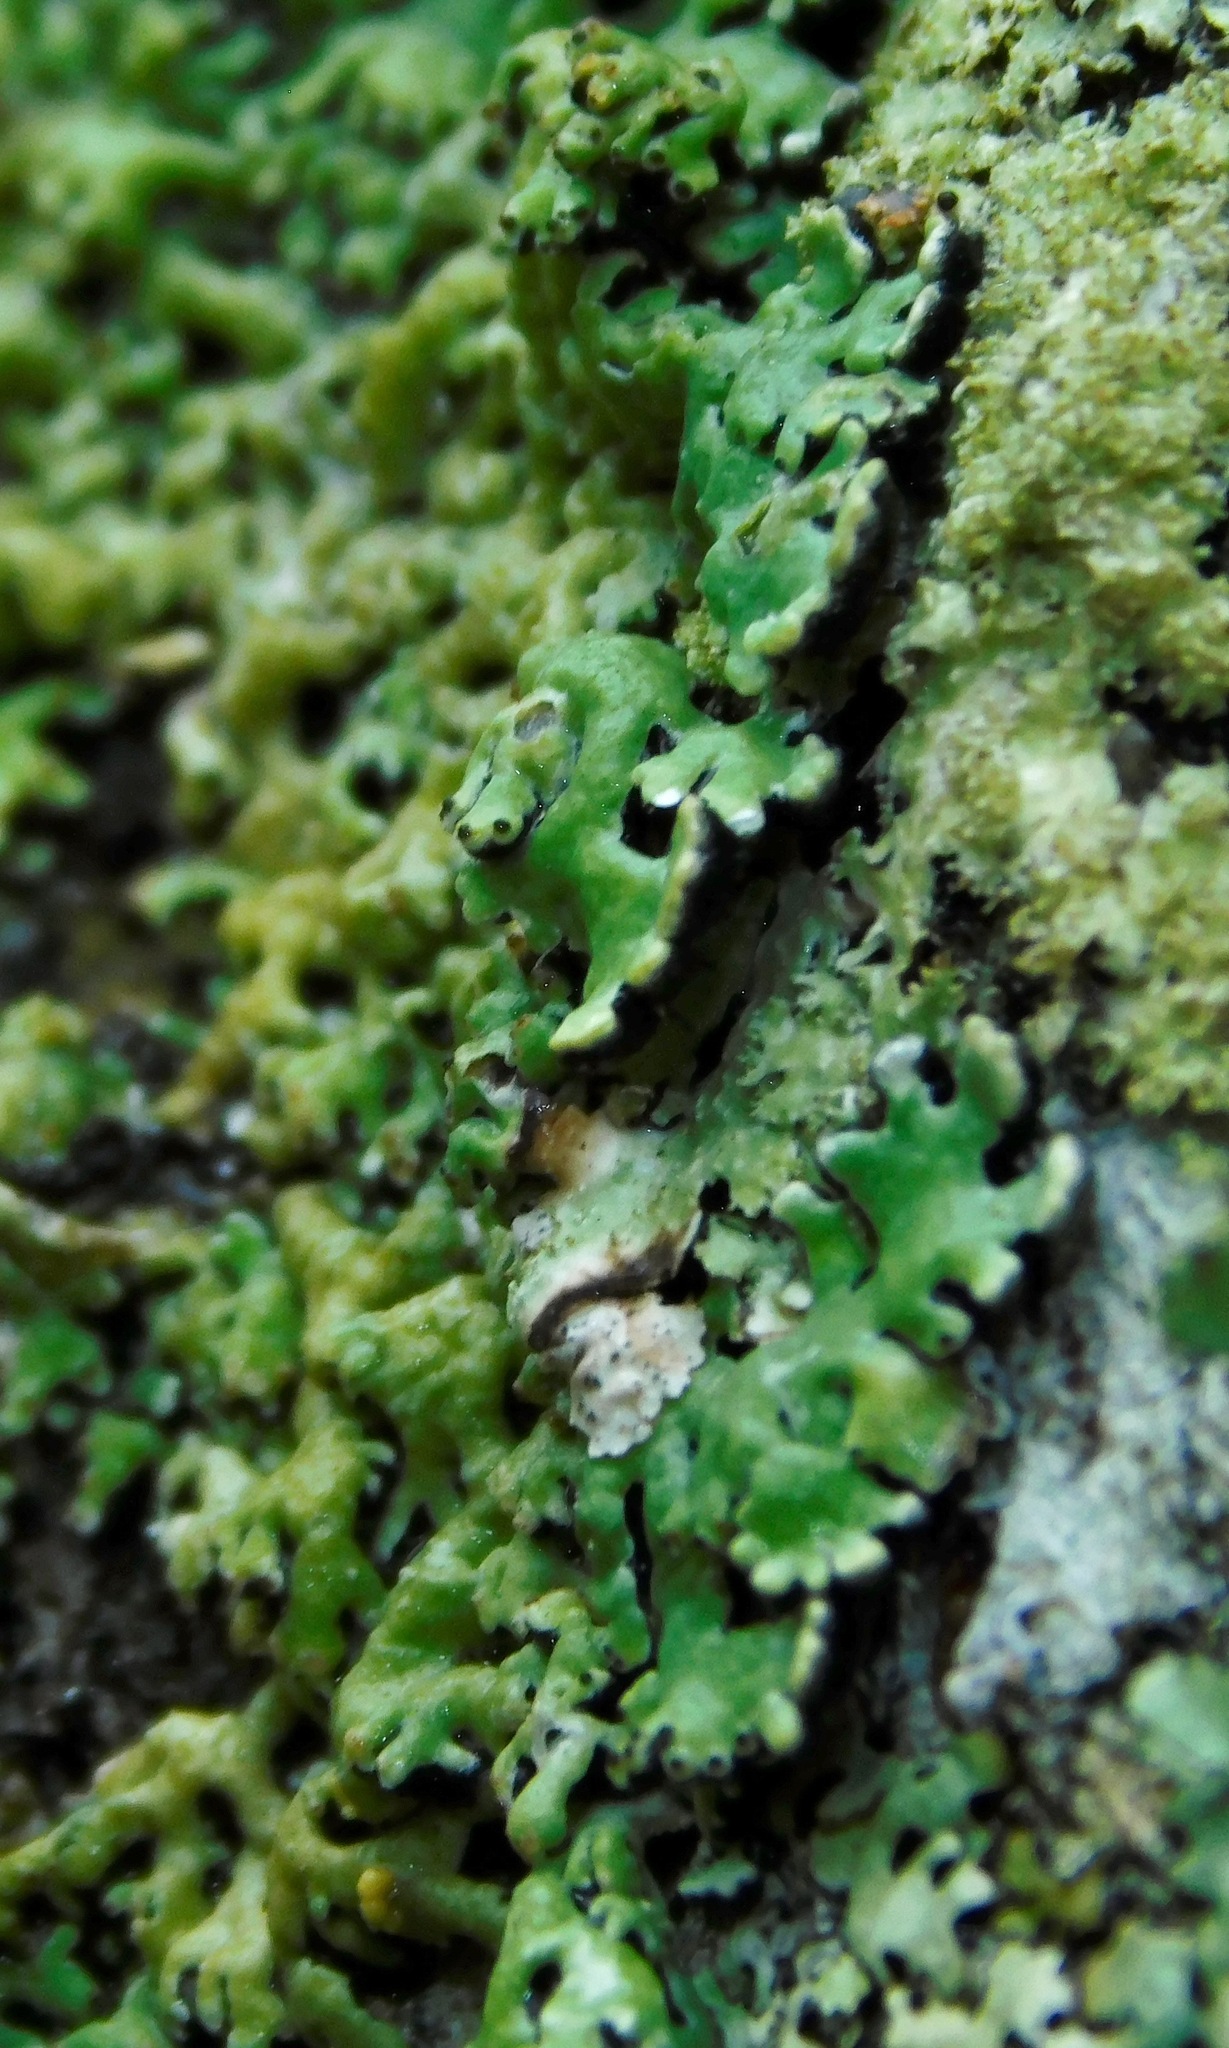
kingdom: Fungi
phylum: Ascomycota
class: Lecanoromycetes
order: Lecanorales
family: Parmeliaceae
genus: Anzia
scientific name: Anzia colpodes
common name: Black-foam lichen
